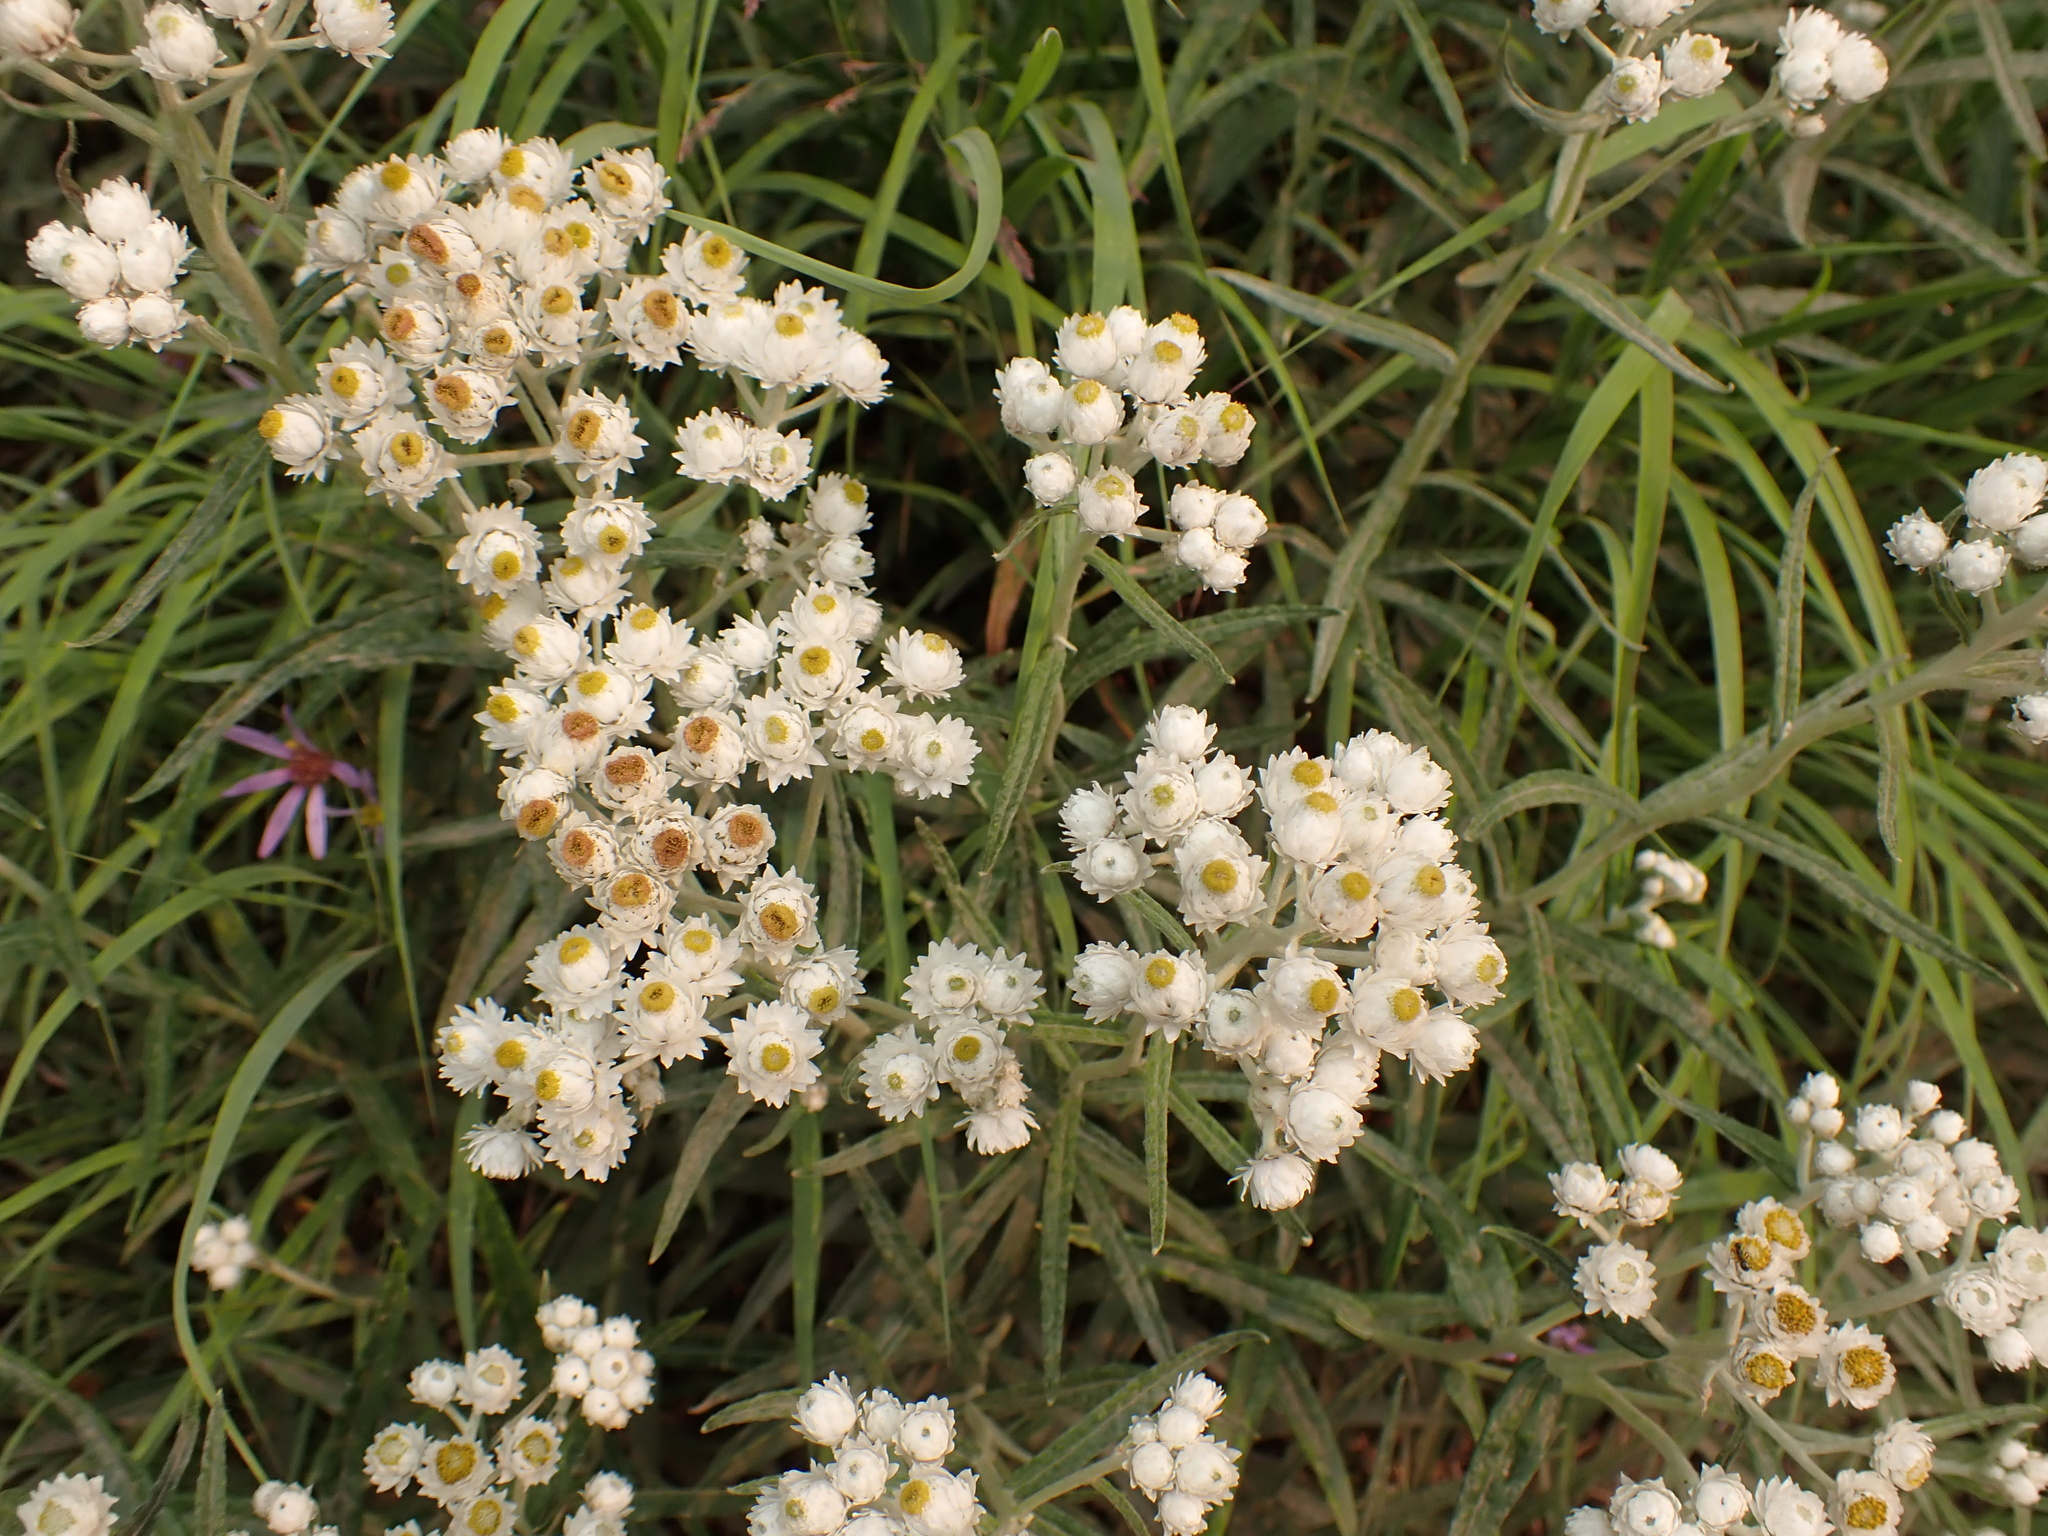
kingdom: Plantae
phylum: Tracheophyta
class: Magnoliopsida
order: Asterales
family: Asteraceae
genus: Anaphalis
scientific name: Anaphalis margaritacea
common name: Pearly everlasting
